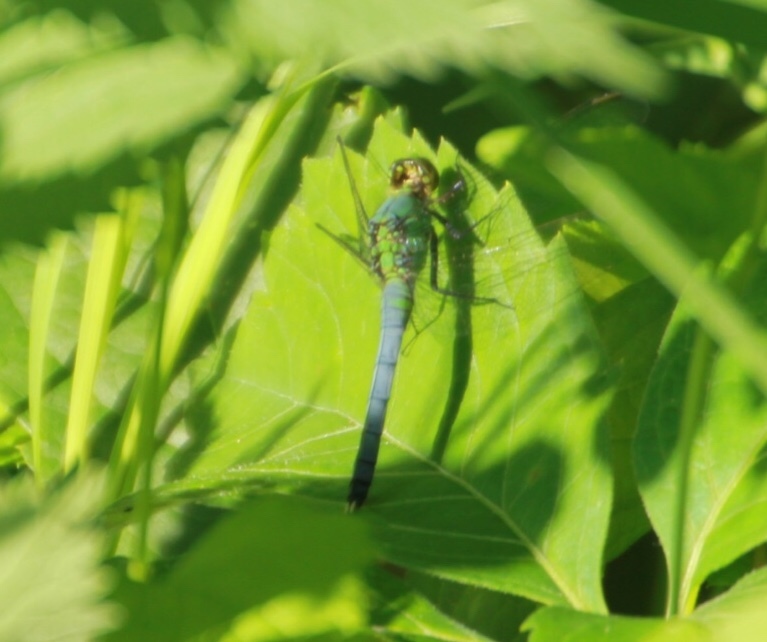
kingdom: Animalia
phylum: Arthropoda
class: Insecta
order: Odonata
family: Libellulidae
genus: Erythemis
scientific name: Erythemis simplicicollis
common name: Eastern pondhawk
